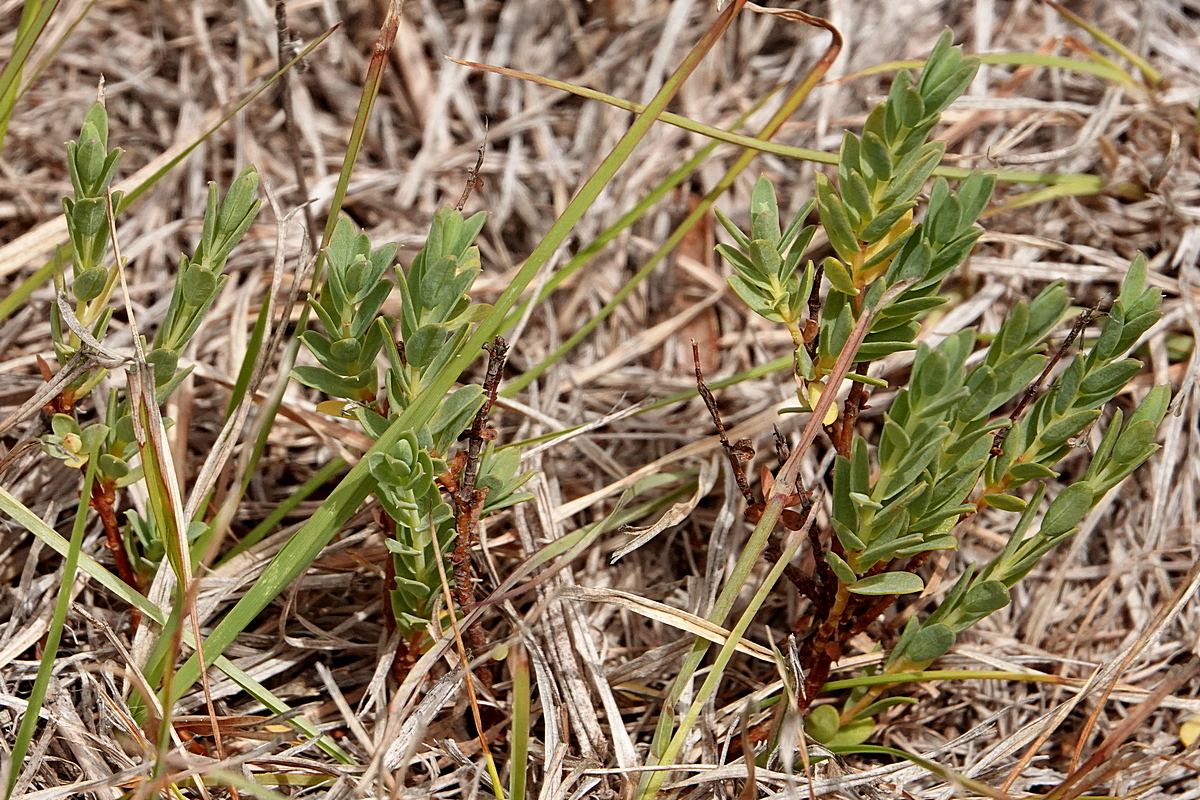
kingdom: Plantae
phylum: Tracheophyta
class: Magnoliopsida
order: Malvales
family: Thymelaeaceae
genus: Pimelea
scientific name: Pimelea glauca
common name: Smooth riceflower
